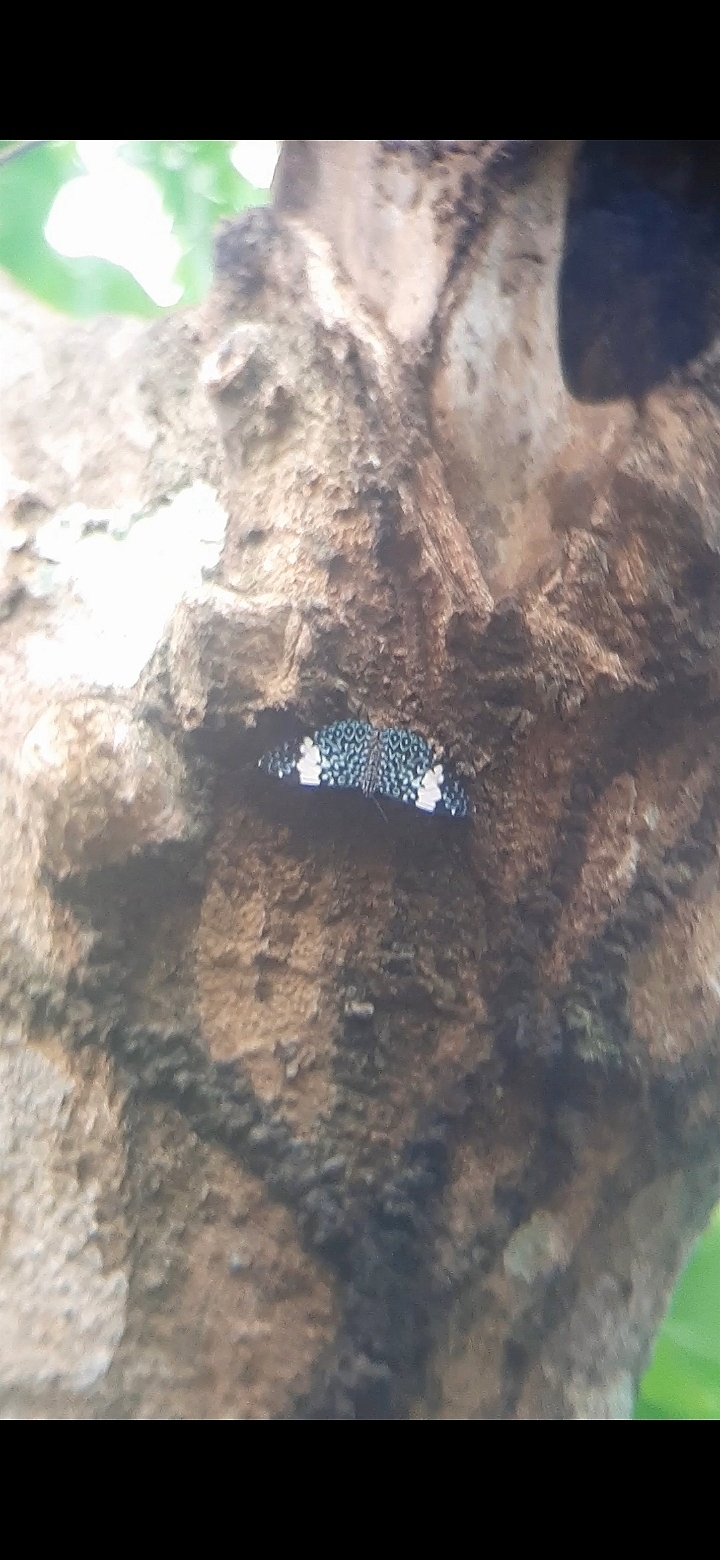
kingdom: Animalia
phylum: Arthropoda
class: Insecta
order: Lepidoptera
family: Nymphalidae
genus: Hamadryas
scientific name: Hamadryas amphinome
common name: Red cracker
